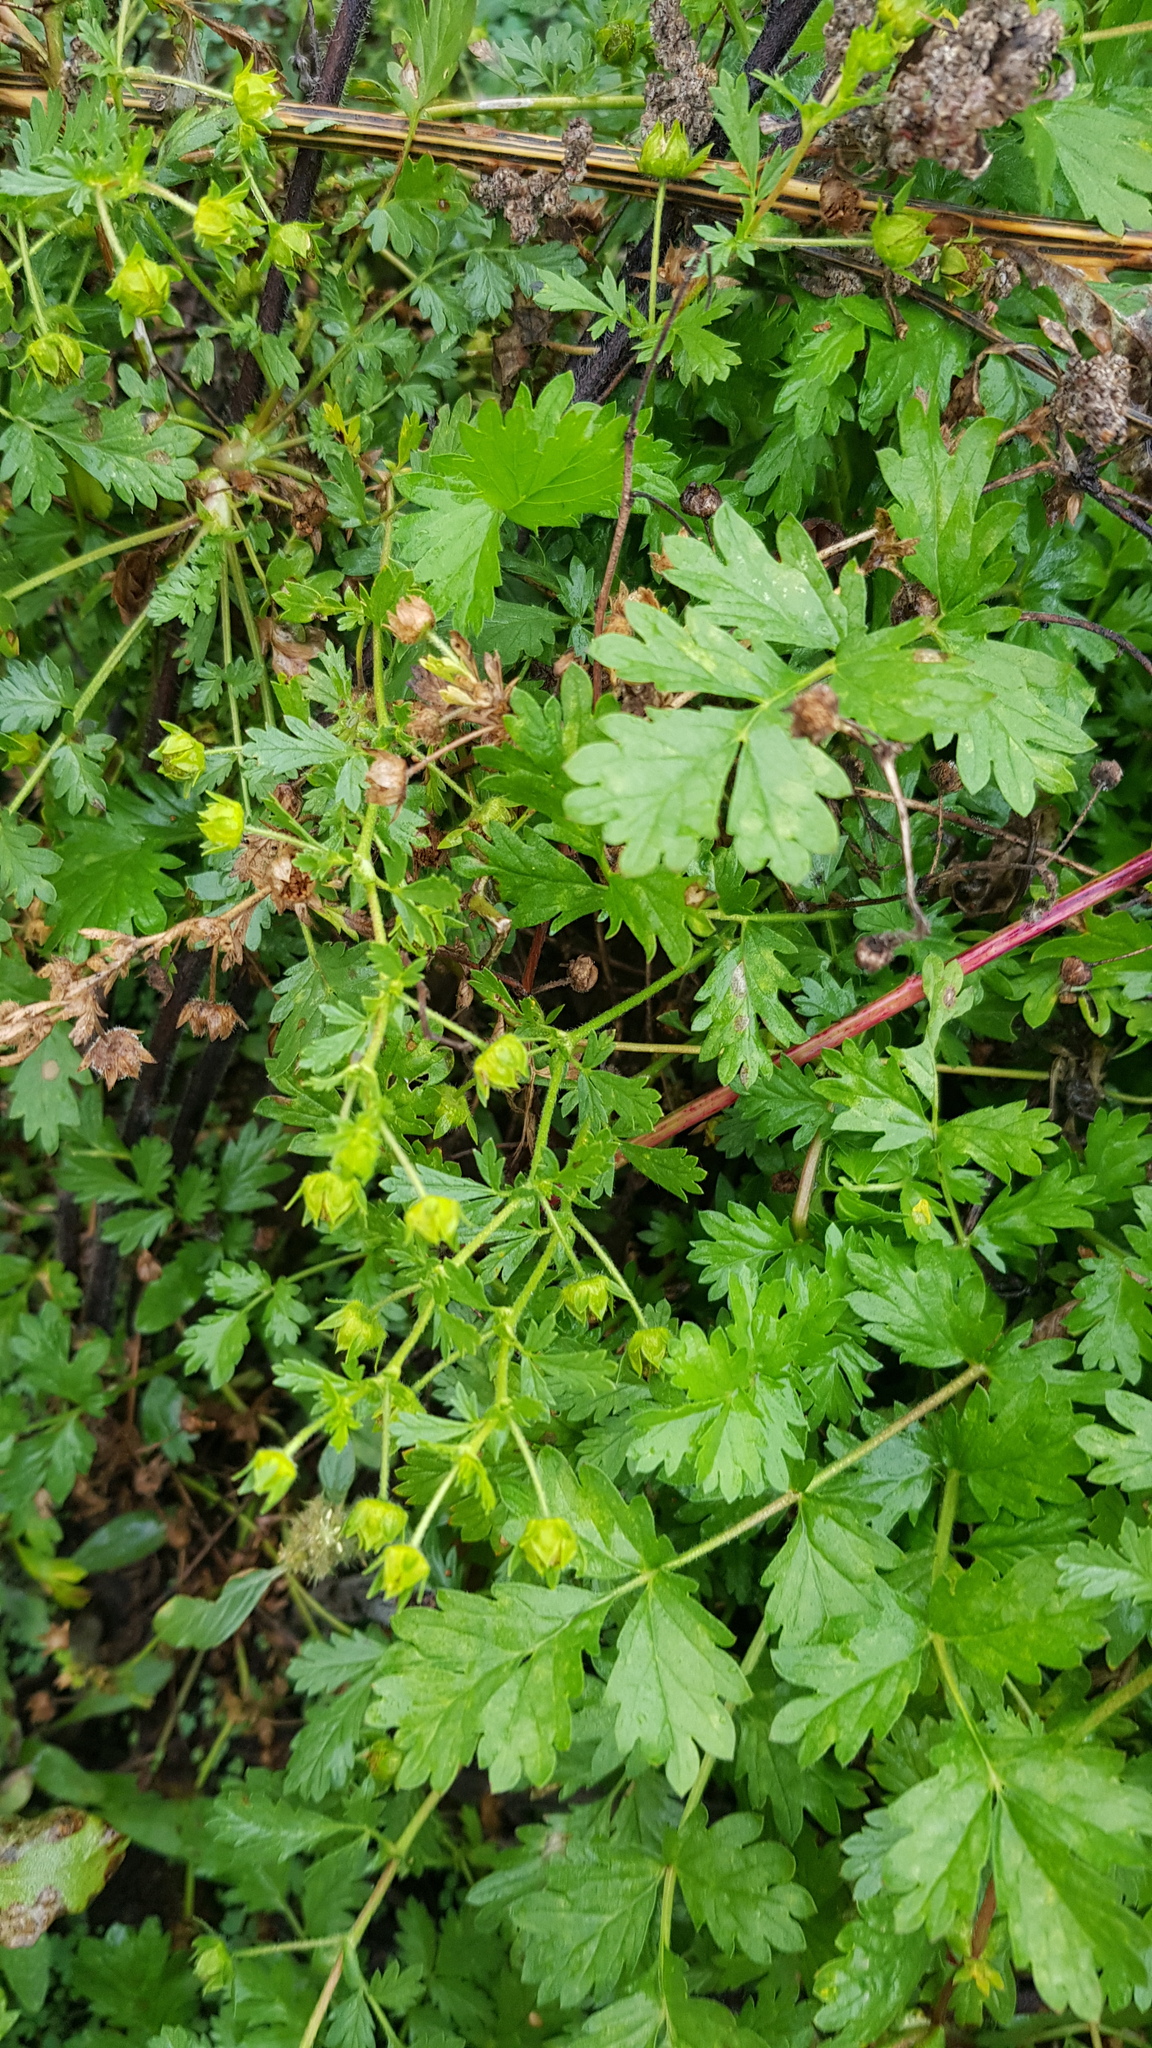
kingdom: Plantae
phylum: Tracheophyta
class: Magnoliopsida
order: Rosales
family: Rosaceae
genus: Potentilla
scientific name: Potentilla supina
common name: Prostrate cinquefoil
